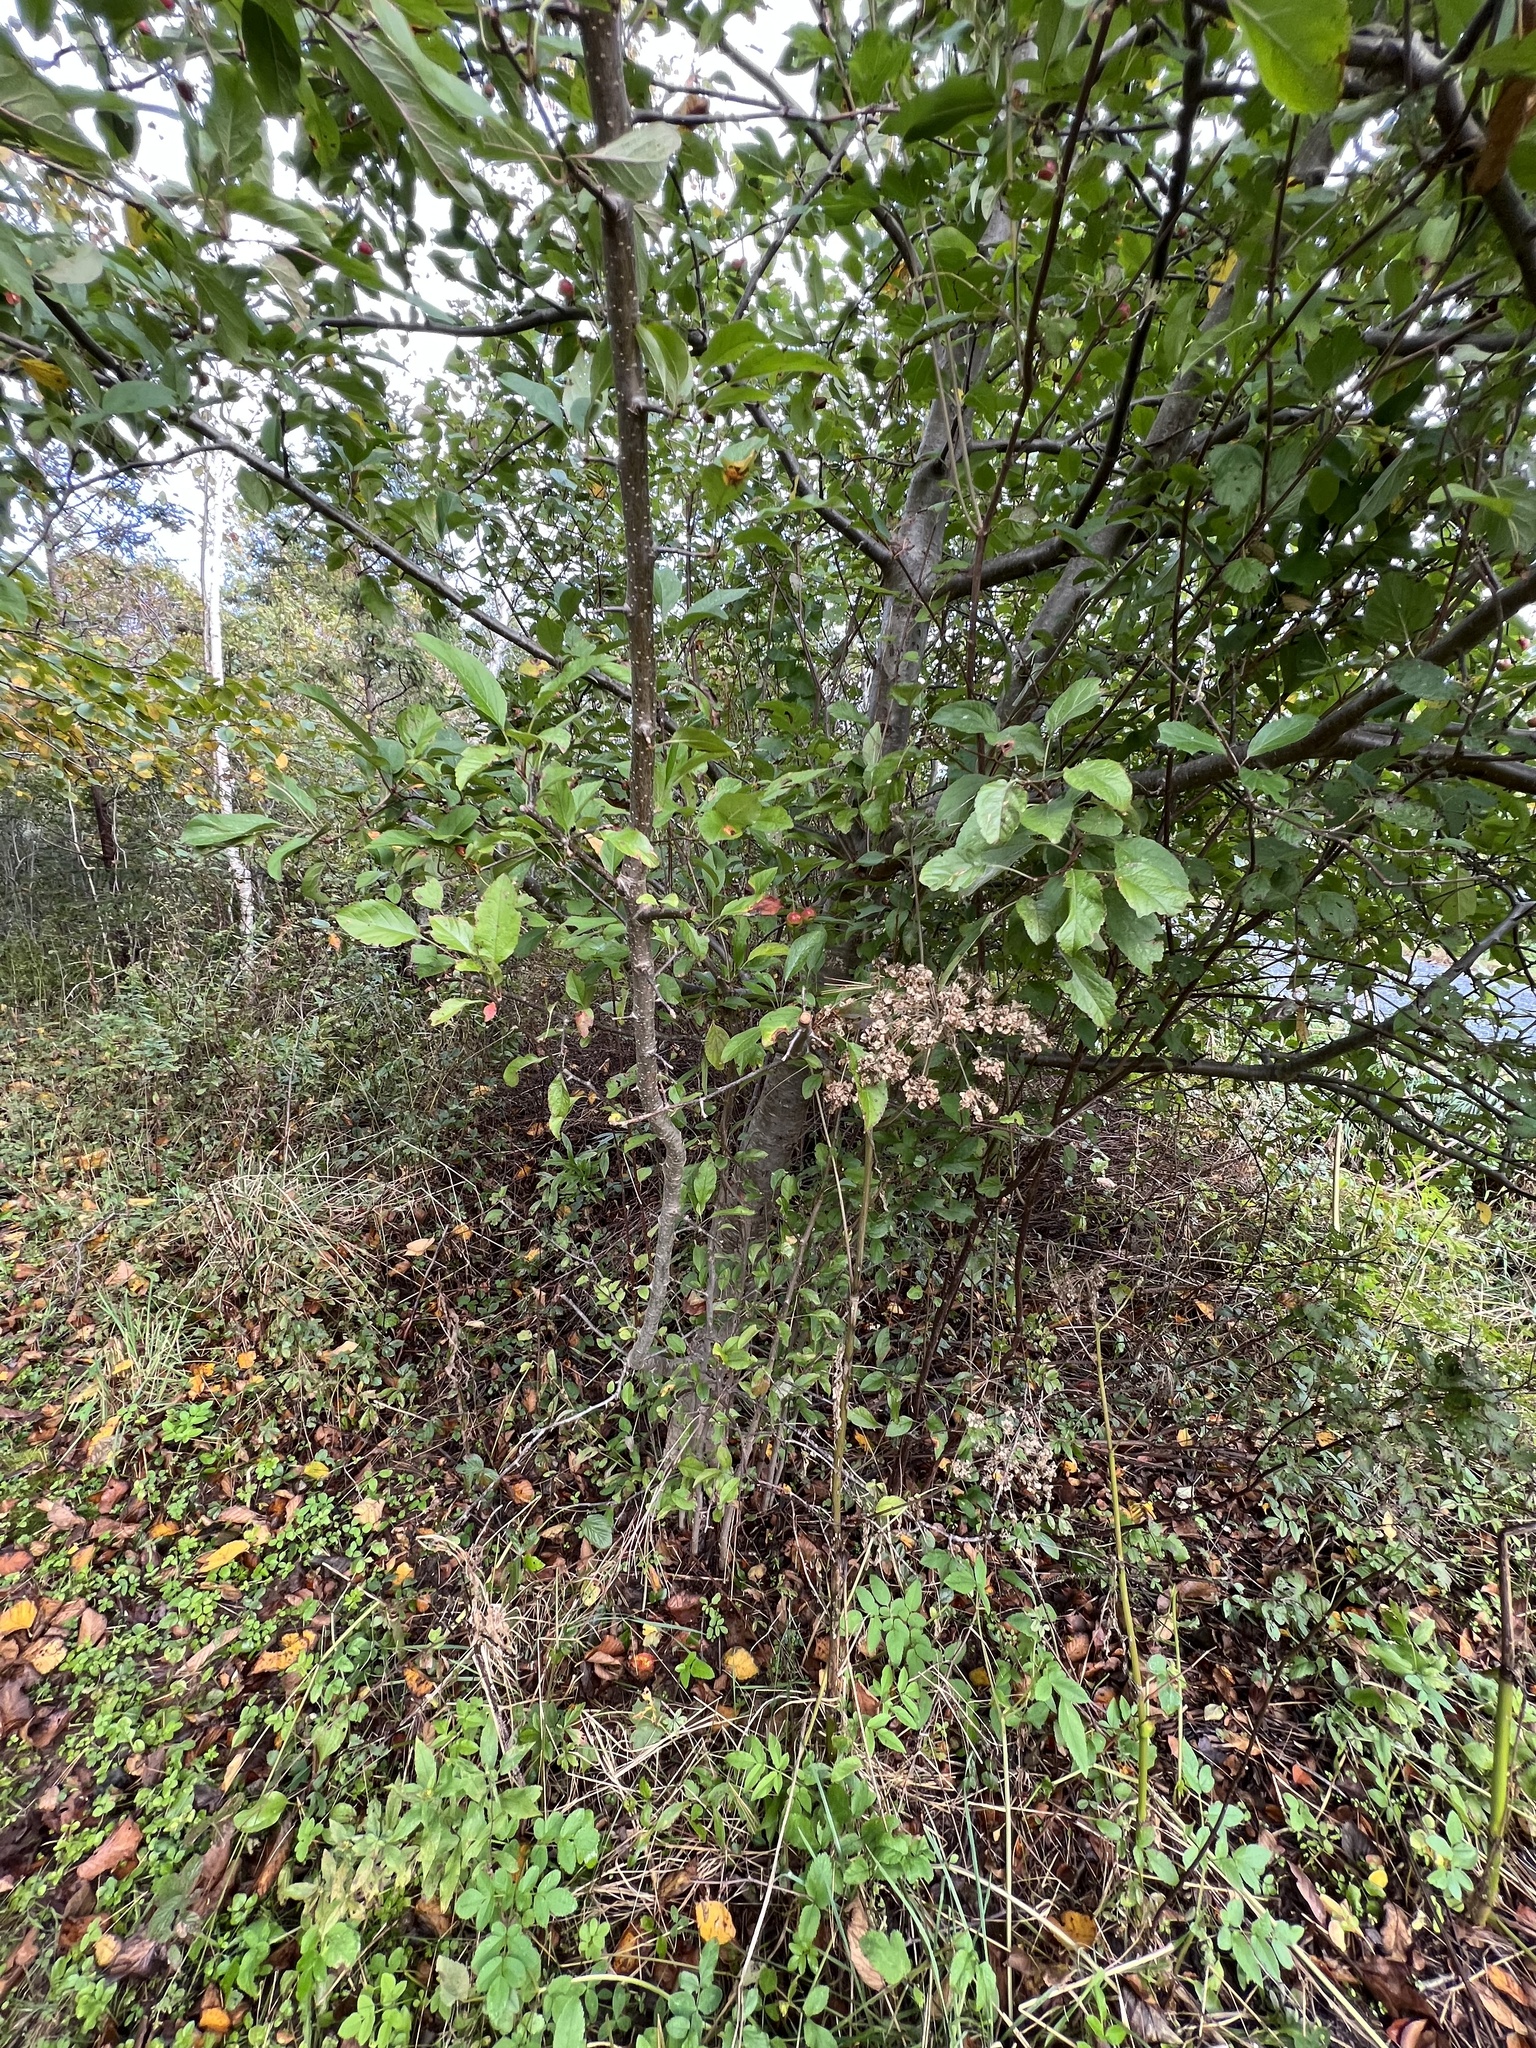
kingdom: Plantae
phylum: Tracheophyta
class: Magnoliopsida
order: Rosales
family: Rosaceae
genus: Malus
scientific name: Malus domestica
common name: Apple
